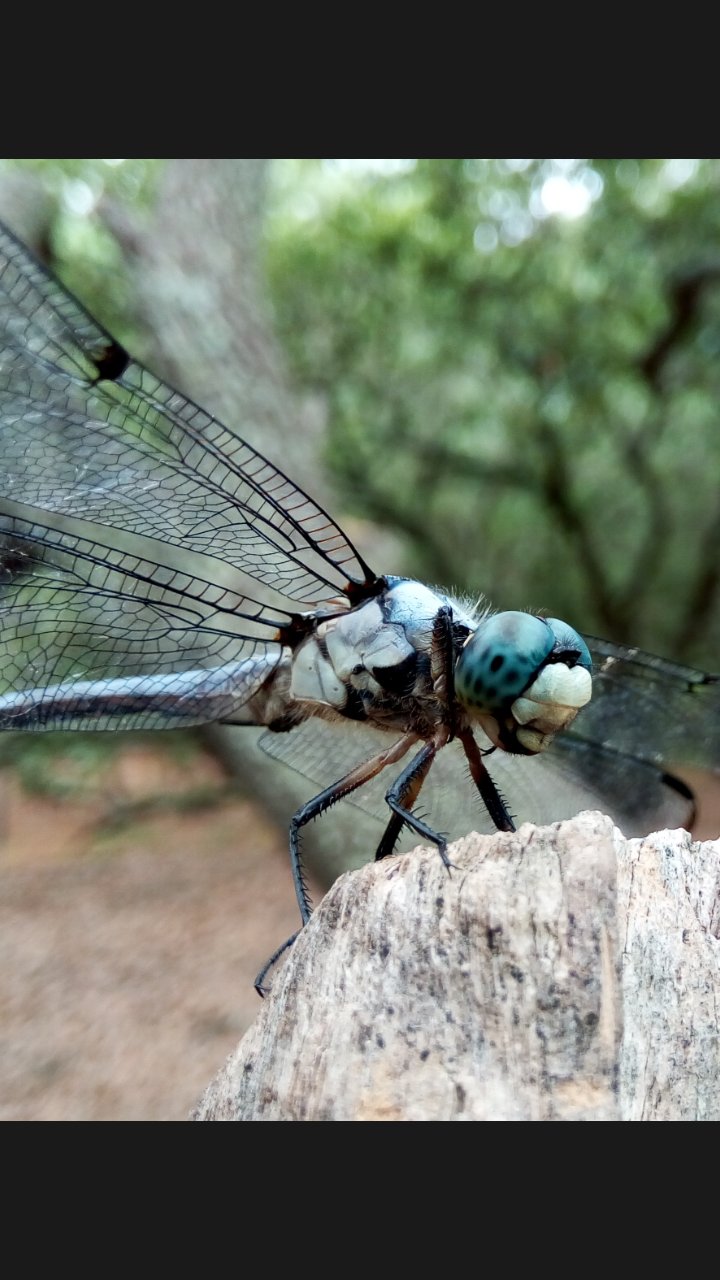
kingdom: Animalia
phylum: Arthropoda
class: Insecta
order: Odonata
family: Libellulidae
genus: Libellula
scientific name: Libellula vibrans
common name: Great blue skimmer
